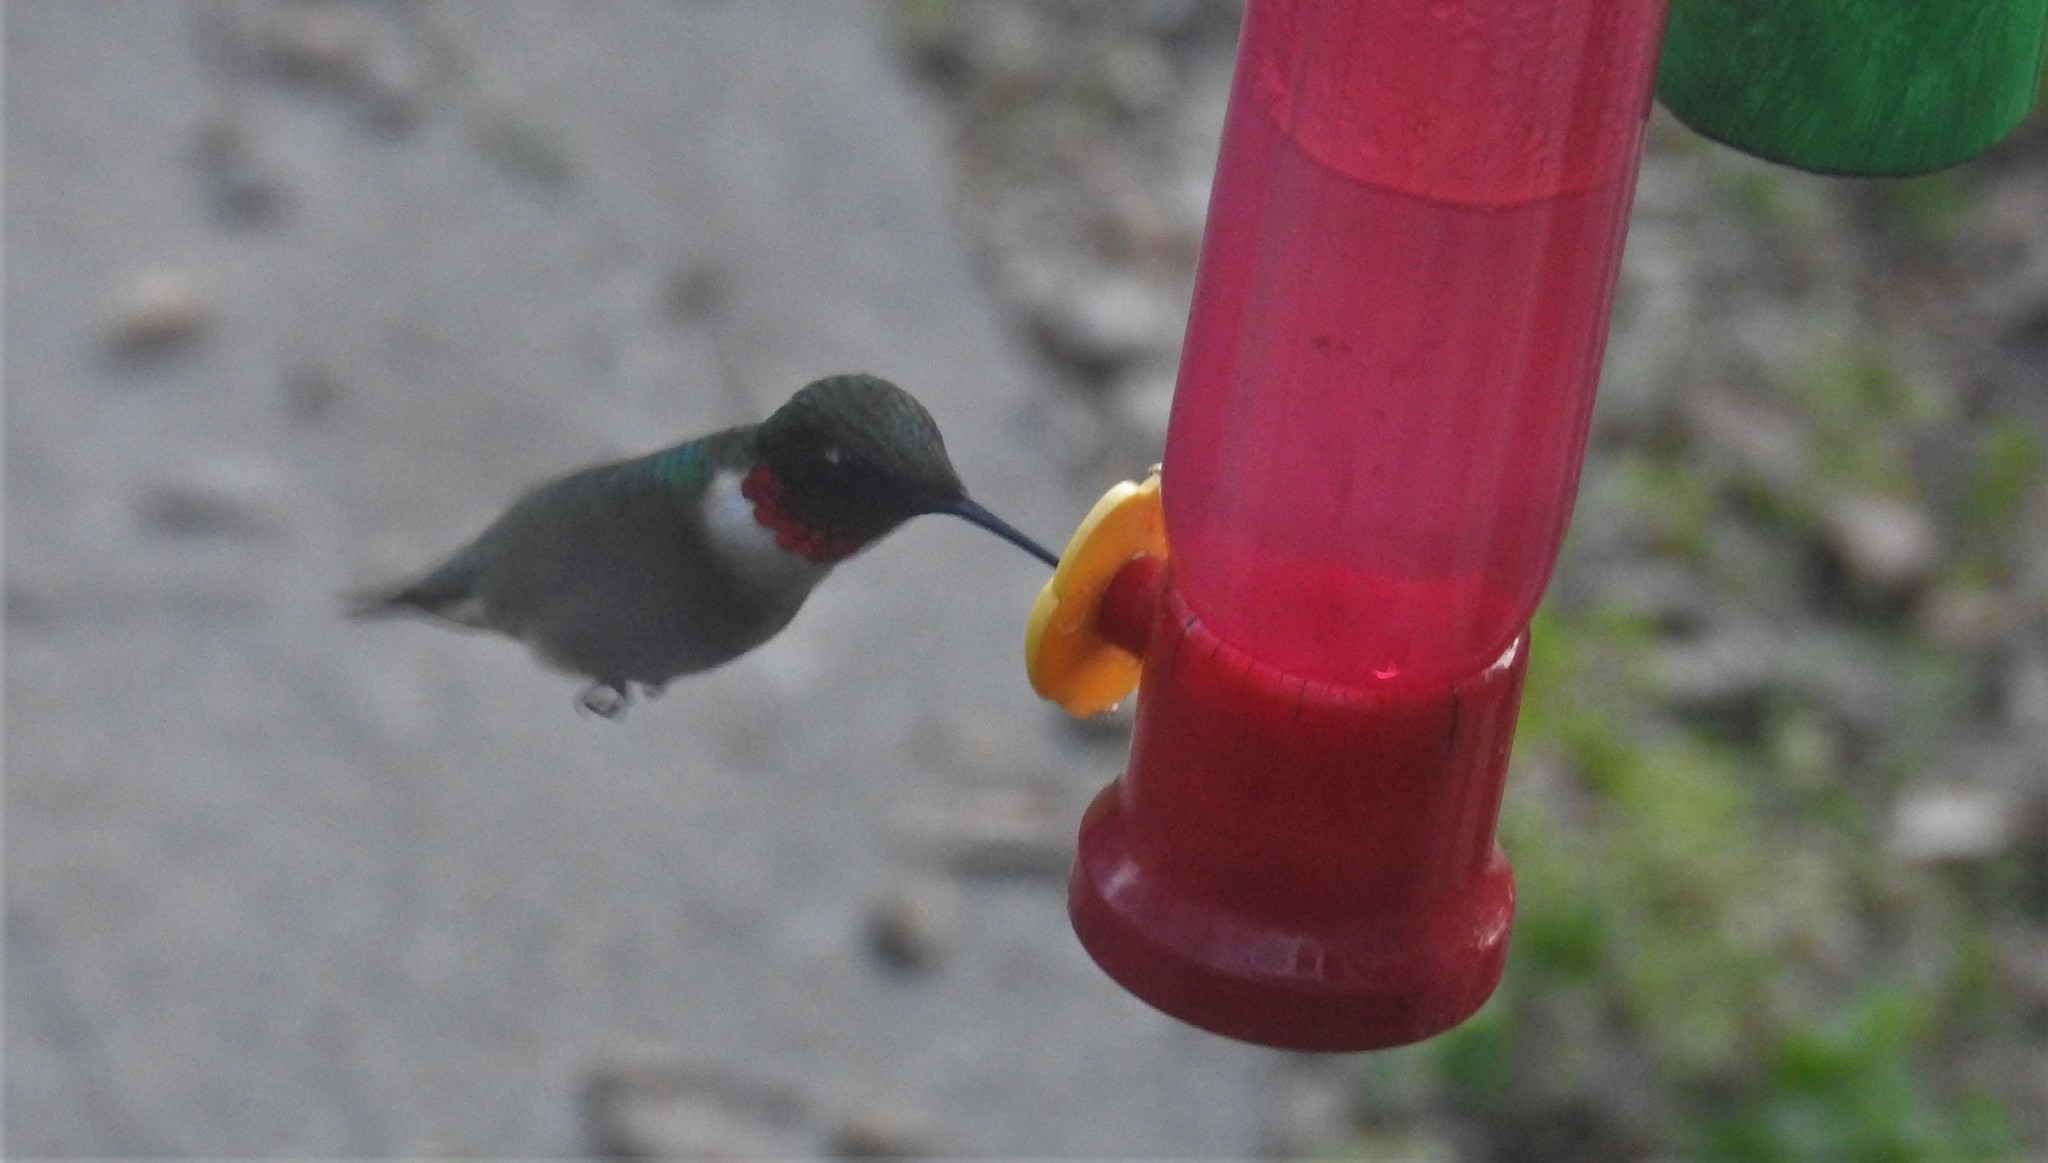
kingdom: Animalia
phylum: Chordata
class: Aves
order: Apodiformes
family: Trochilidae
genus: Archilochus
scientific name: Archilochus colubris
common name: Ruby-throated hummingbird
